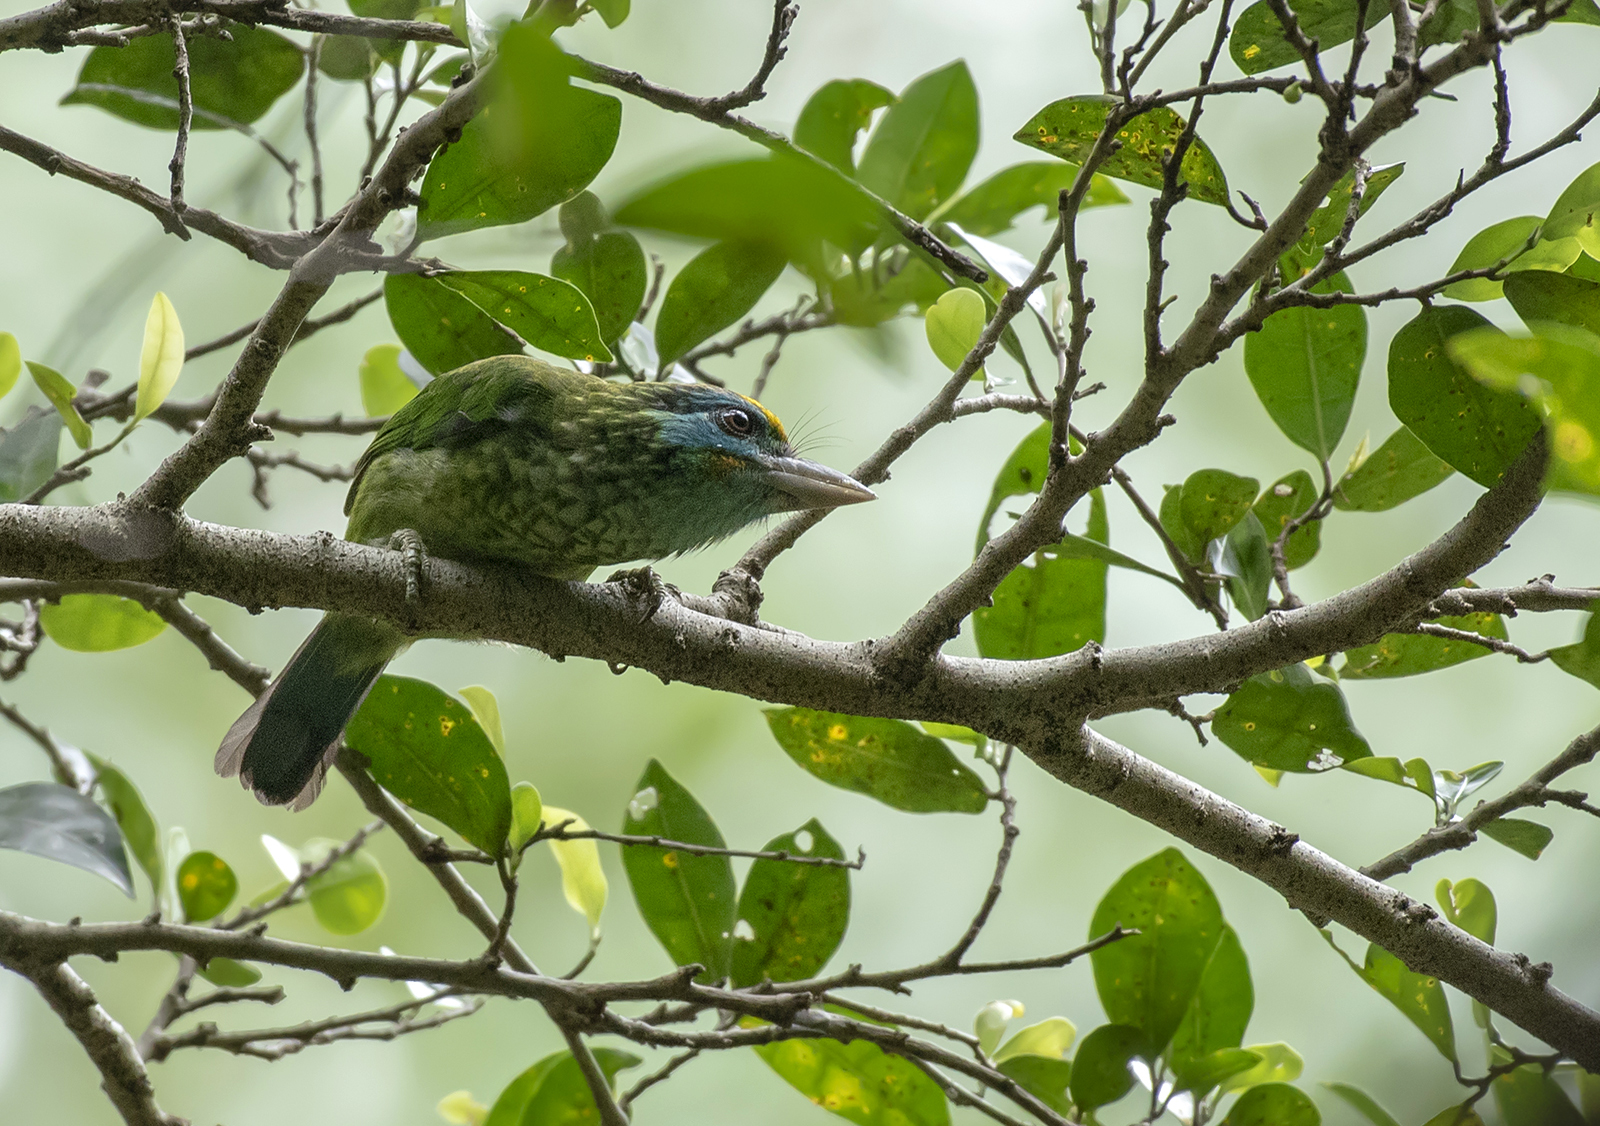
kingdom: Animalia
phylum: Chordata
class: Aves
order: Piciformes
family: Megalaimidae
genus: Psilopogon
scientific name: Psilopogon flavifrons
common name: Yellow-fronted barbet
